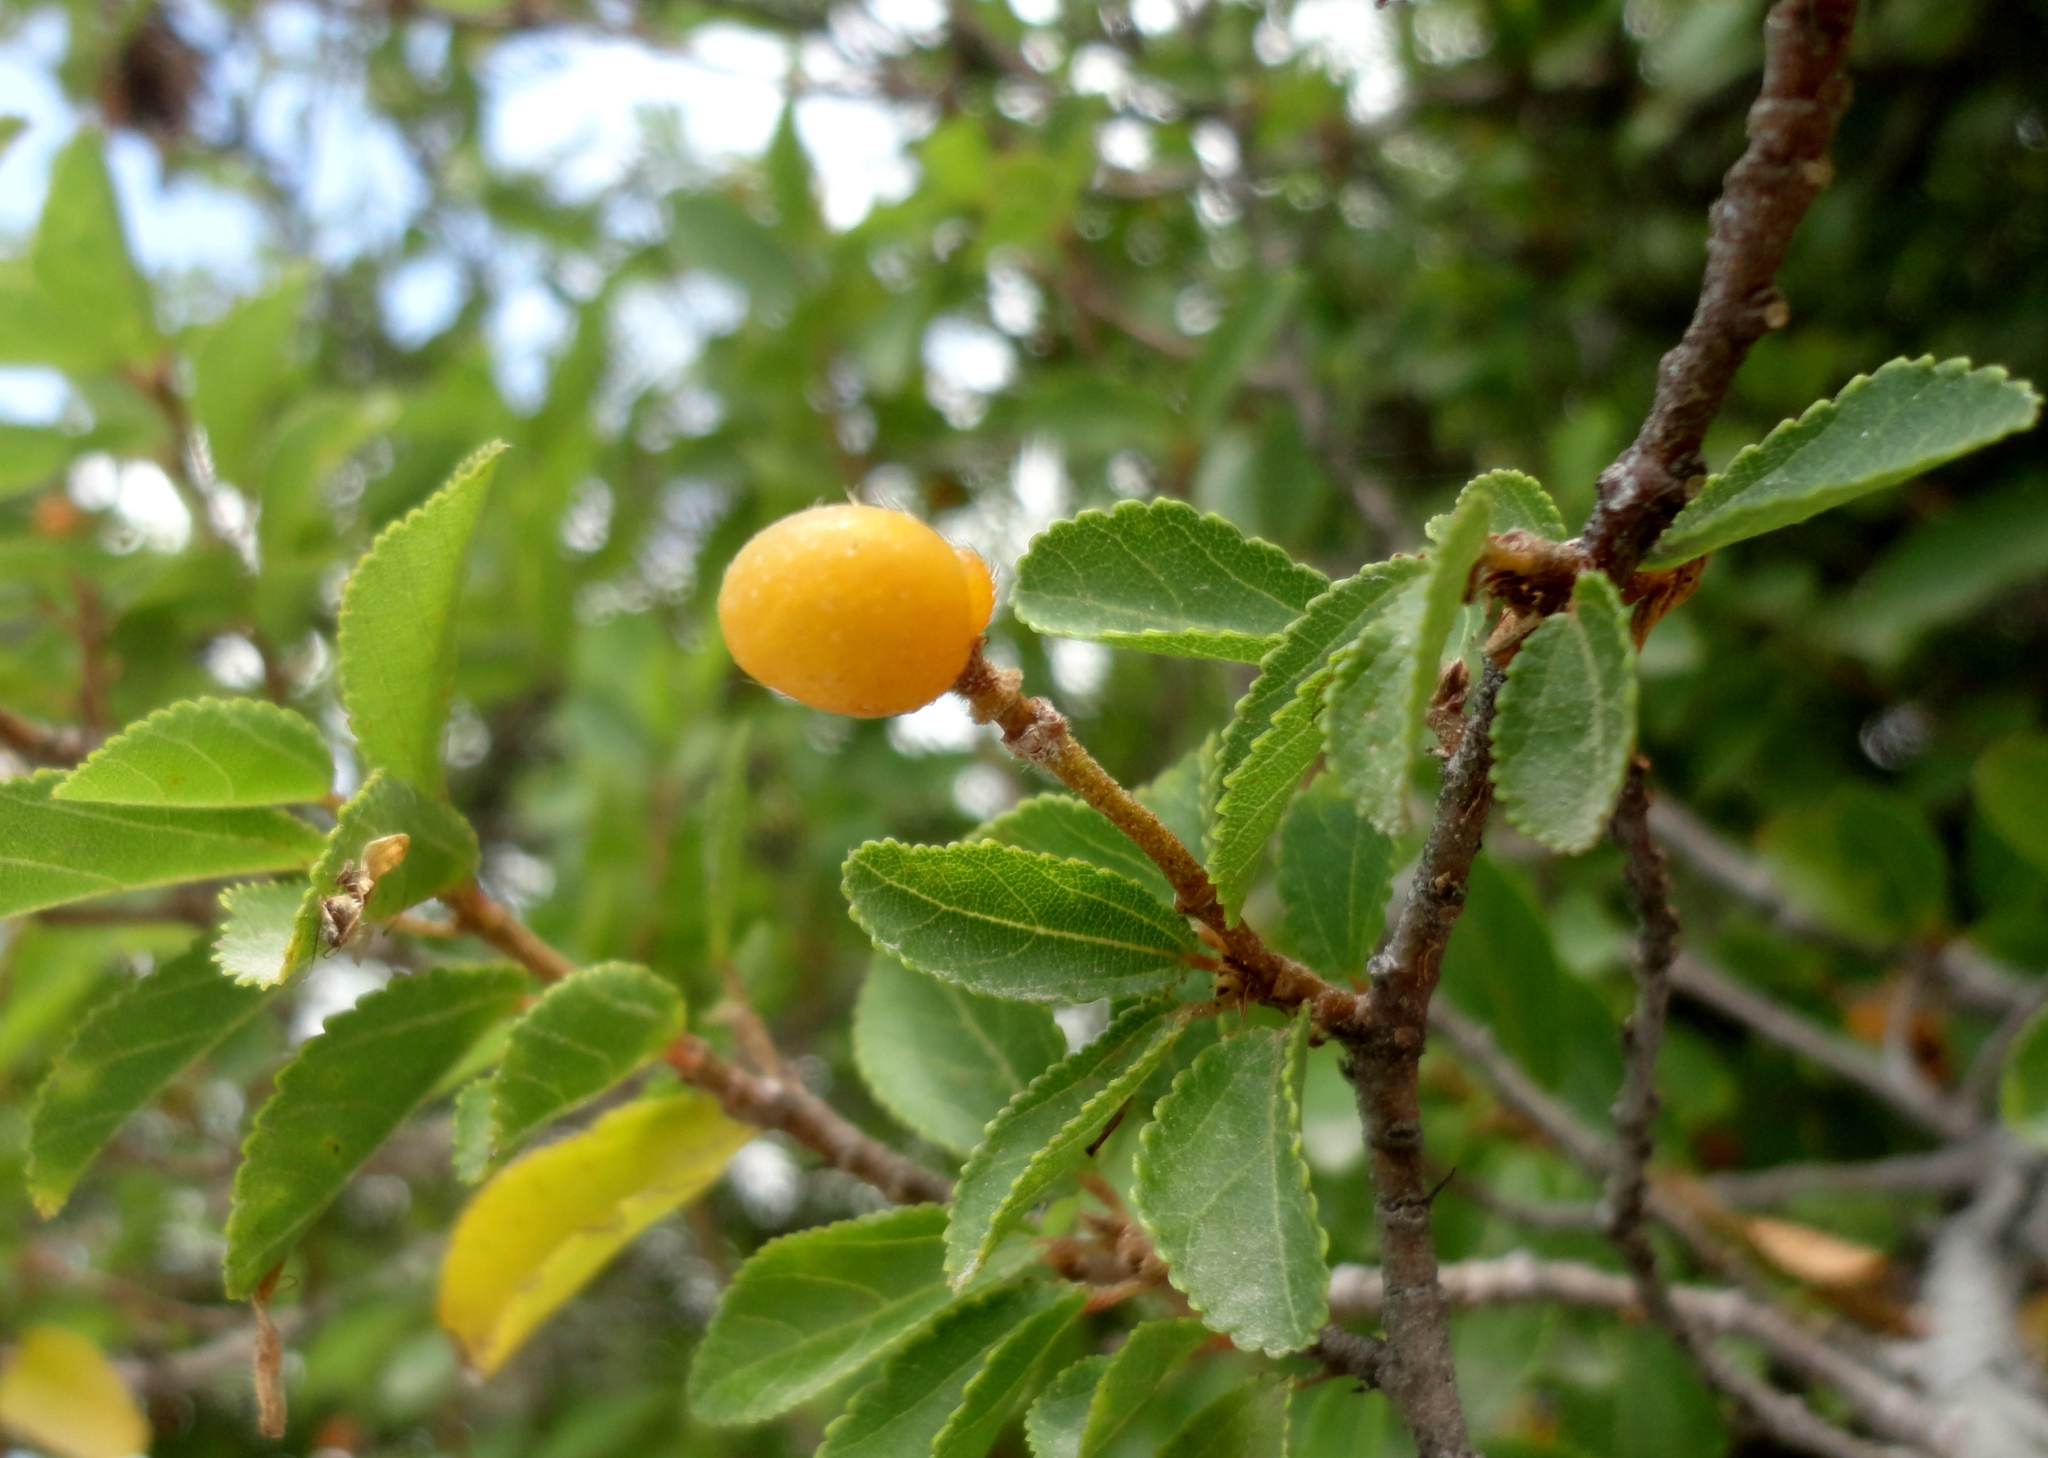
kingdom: Plantae
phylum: Tracheophyta
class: Magnoliopsida
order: Malvales
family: Malvaceae
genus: Grewia
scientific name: Grewia occidentalis
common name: Crossberry
